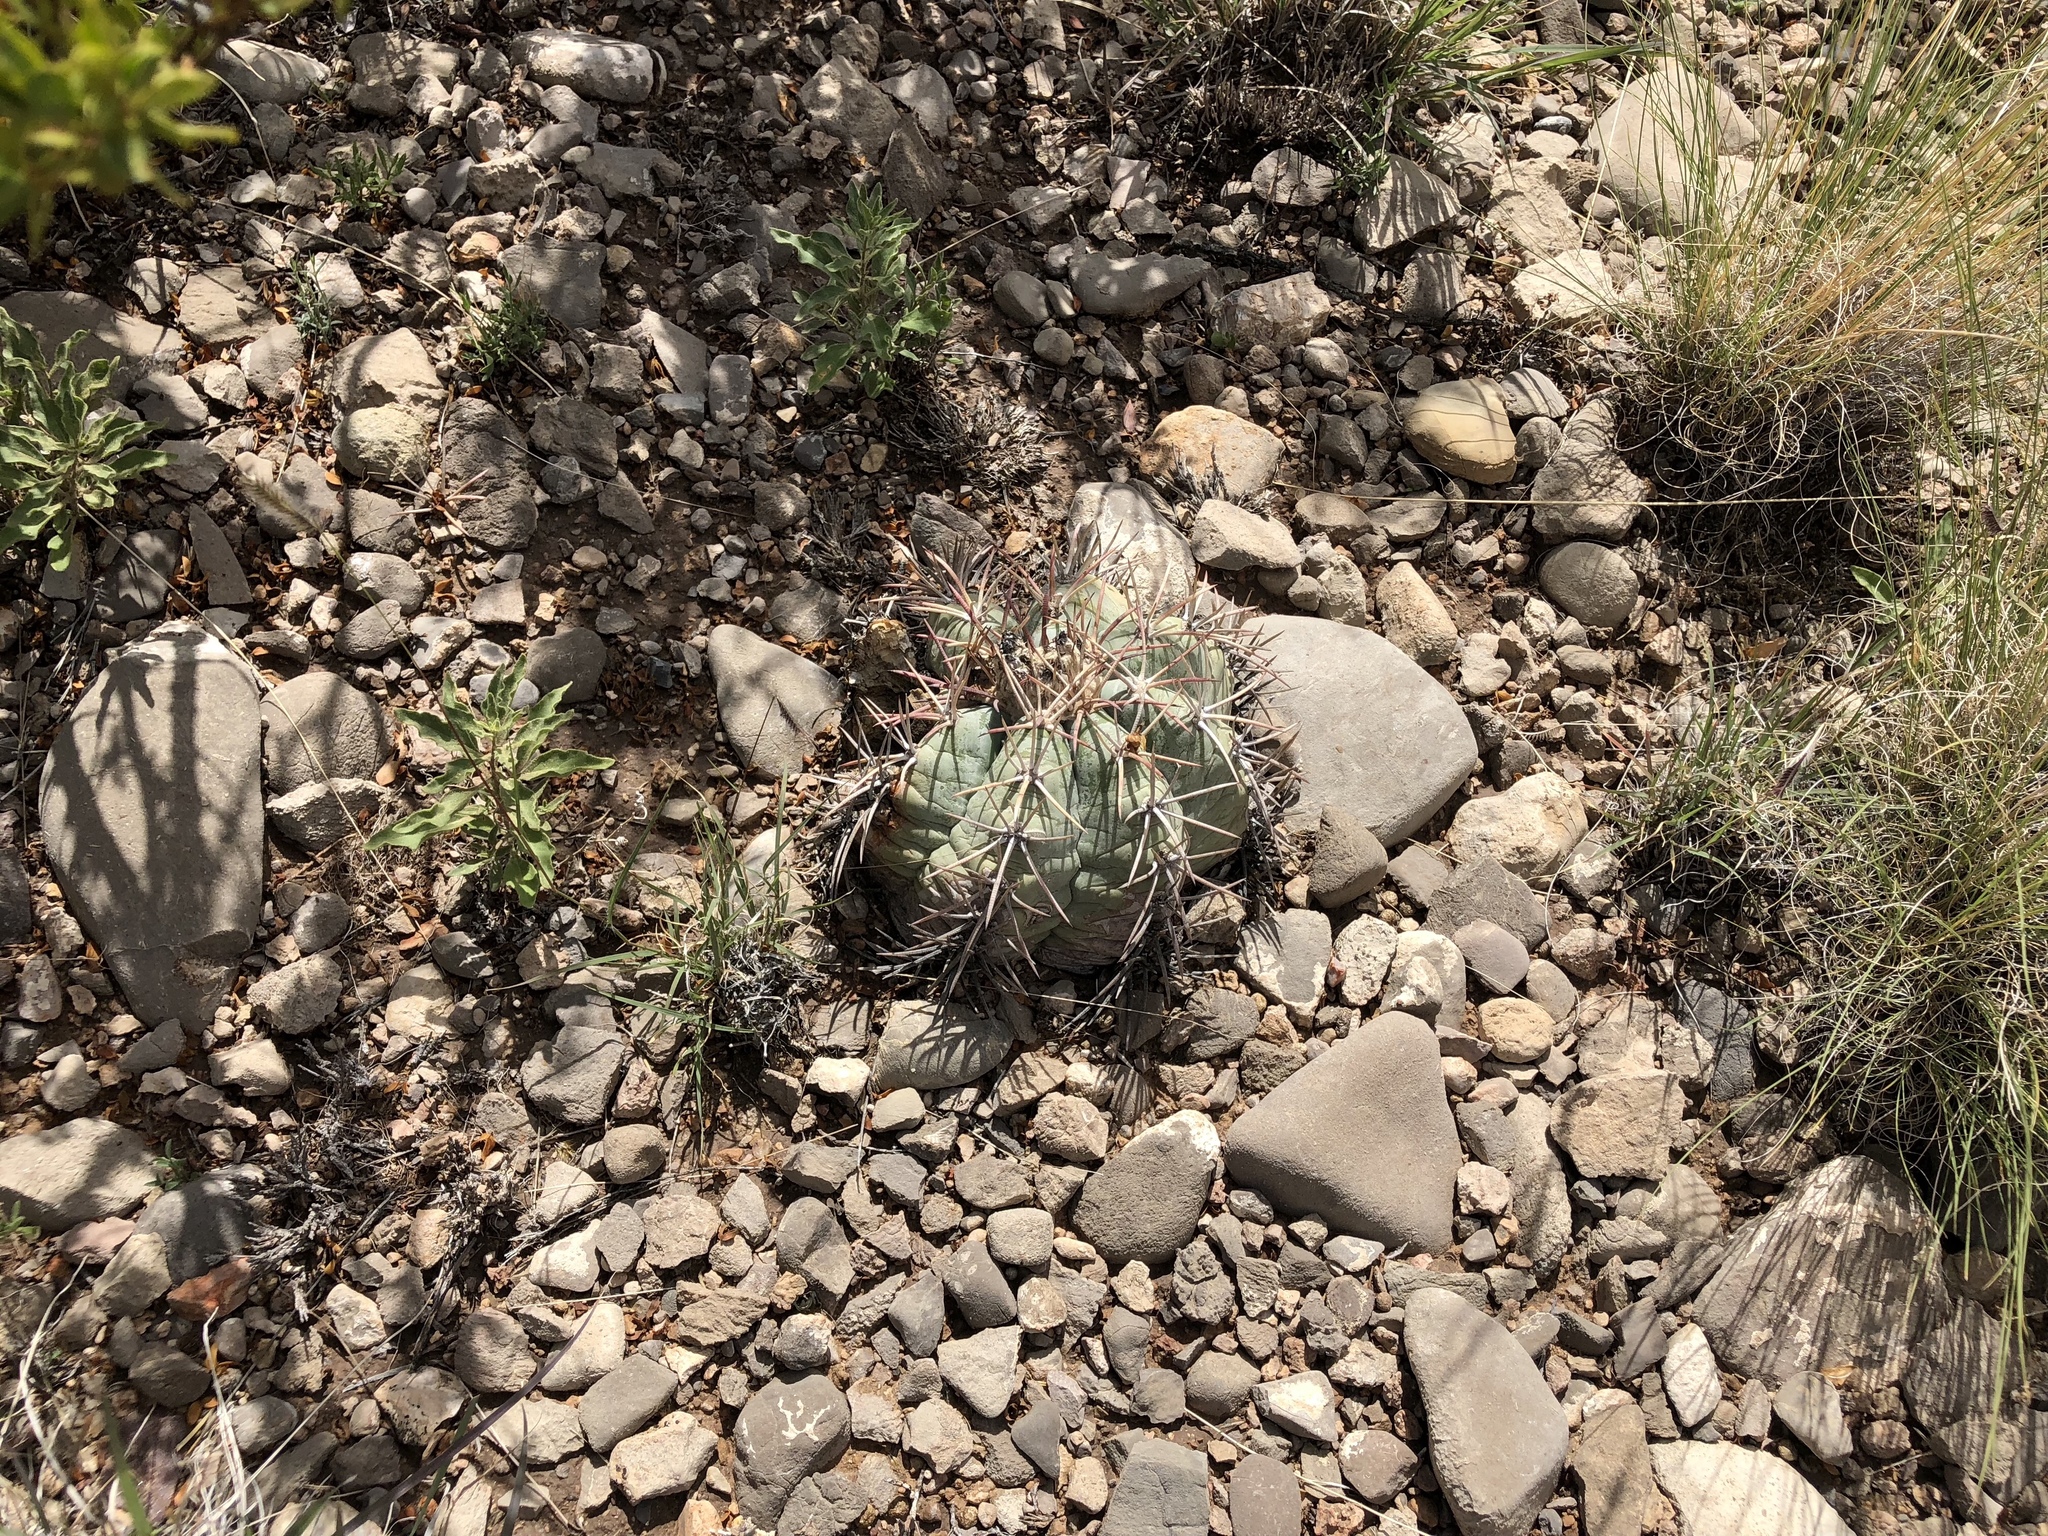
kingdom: Plantae
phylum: Tracheophyta
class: Magnoliopsida
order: Caryophyllales
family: Cactaceae
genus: Echinocactus
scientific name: Echinocactus horizonthalonius
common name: Devilshead
